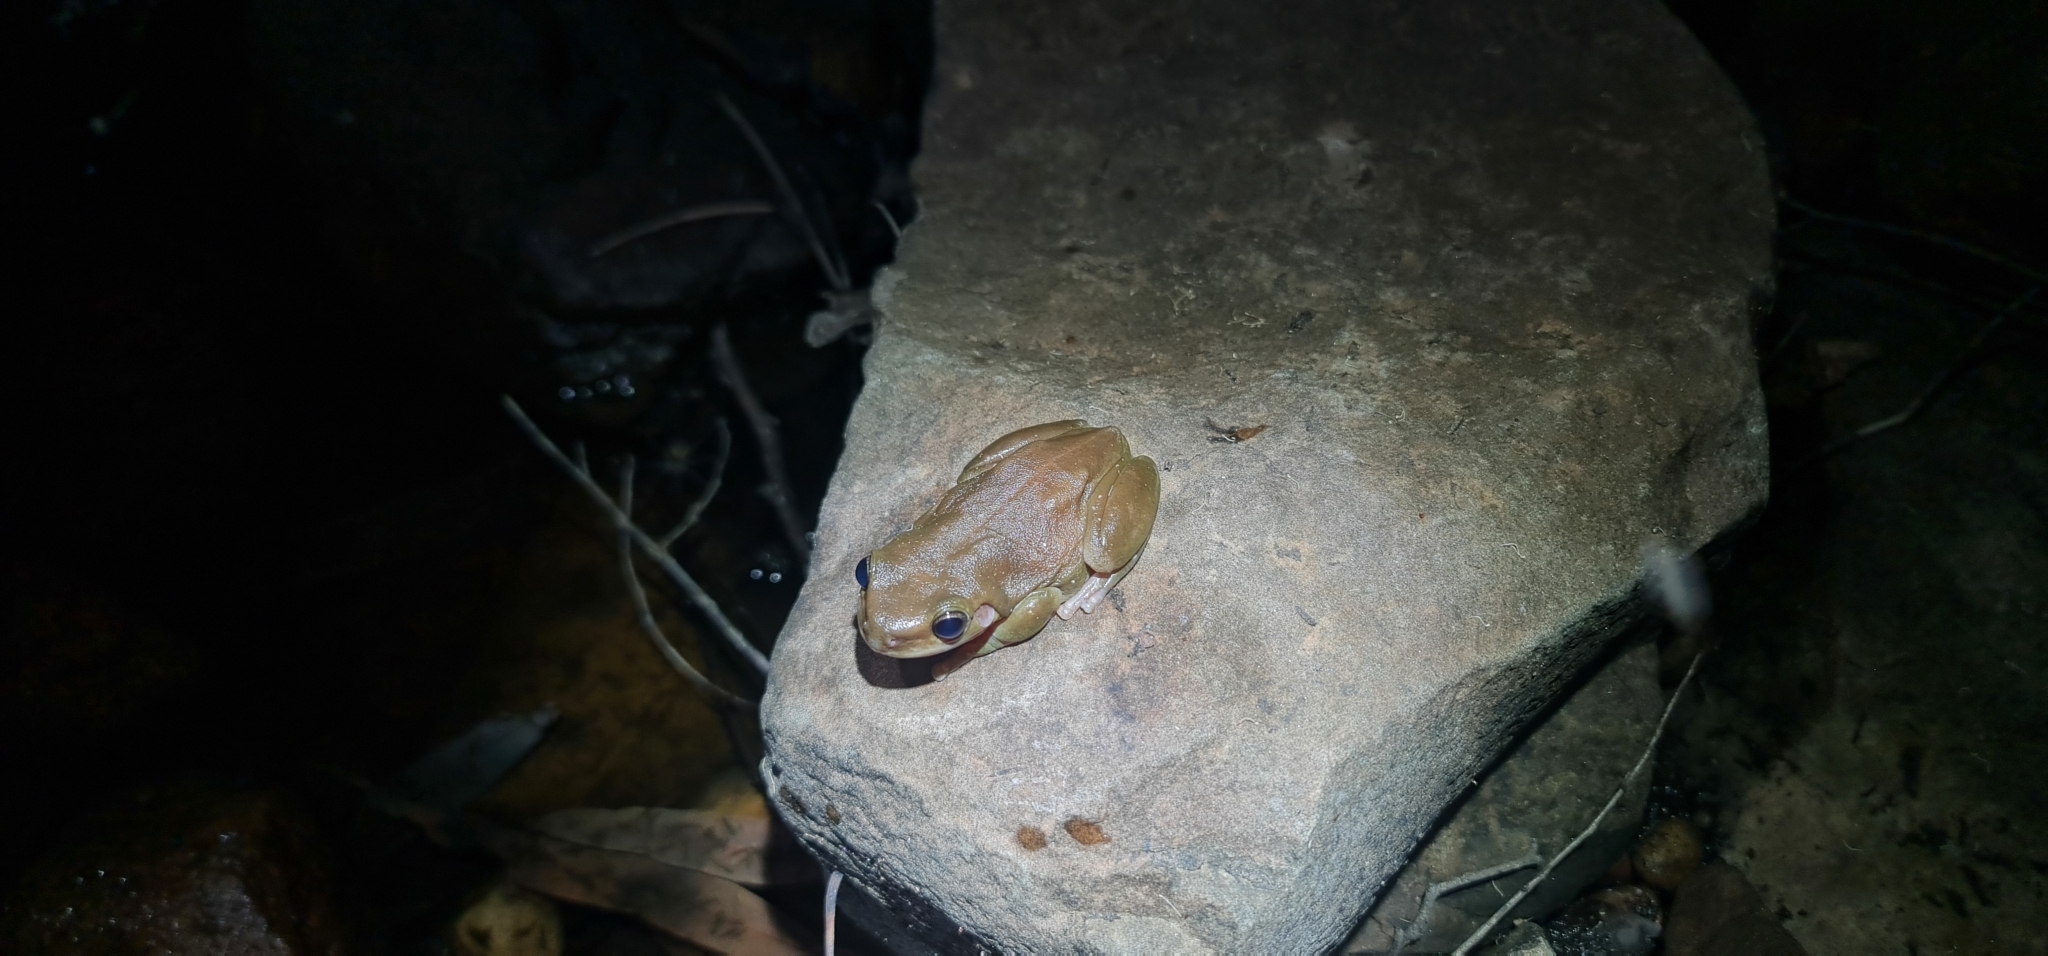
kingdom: Animalia
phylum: Chordata
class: Amphibia
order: Anura
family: Pelodryadidae
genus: Ranoidea
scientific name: Ranoidea gilleni
